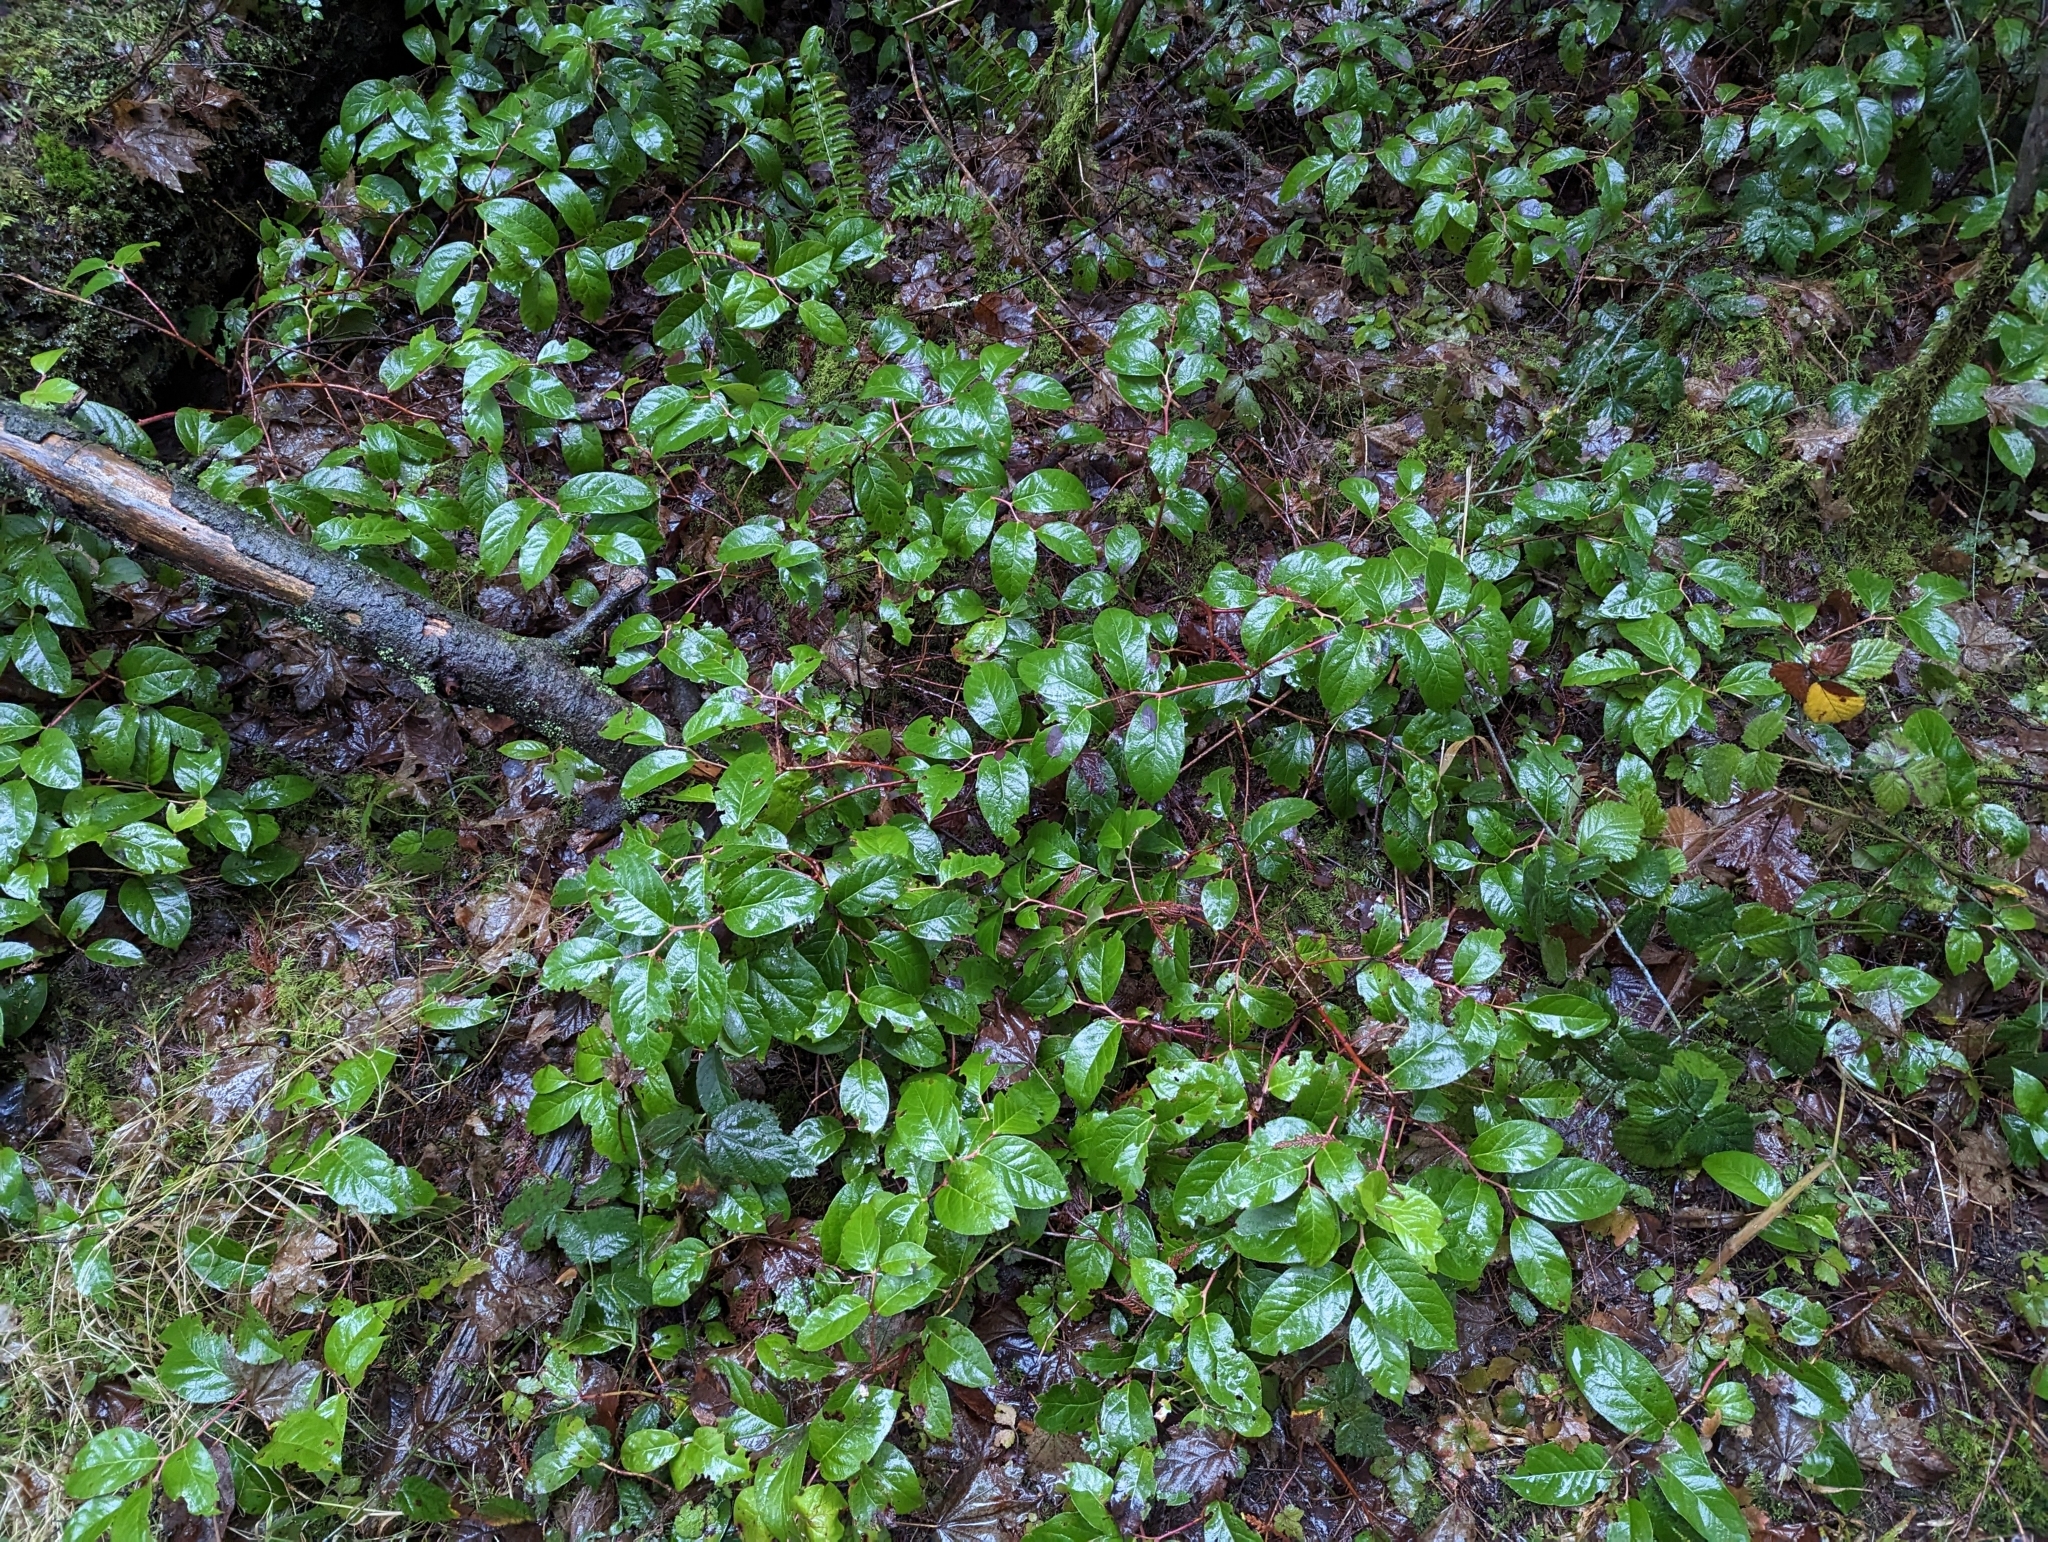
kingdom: Plantae
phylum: Tracheophyta
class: Magnoliopsida
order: Ericales
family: Ericaceae
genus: Gaultheria
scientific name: Gaultheria shallon
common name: Shallon
